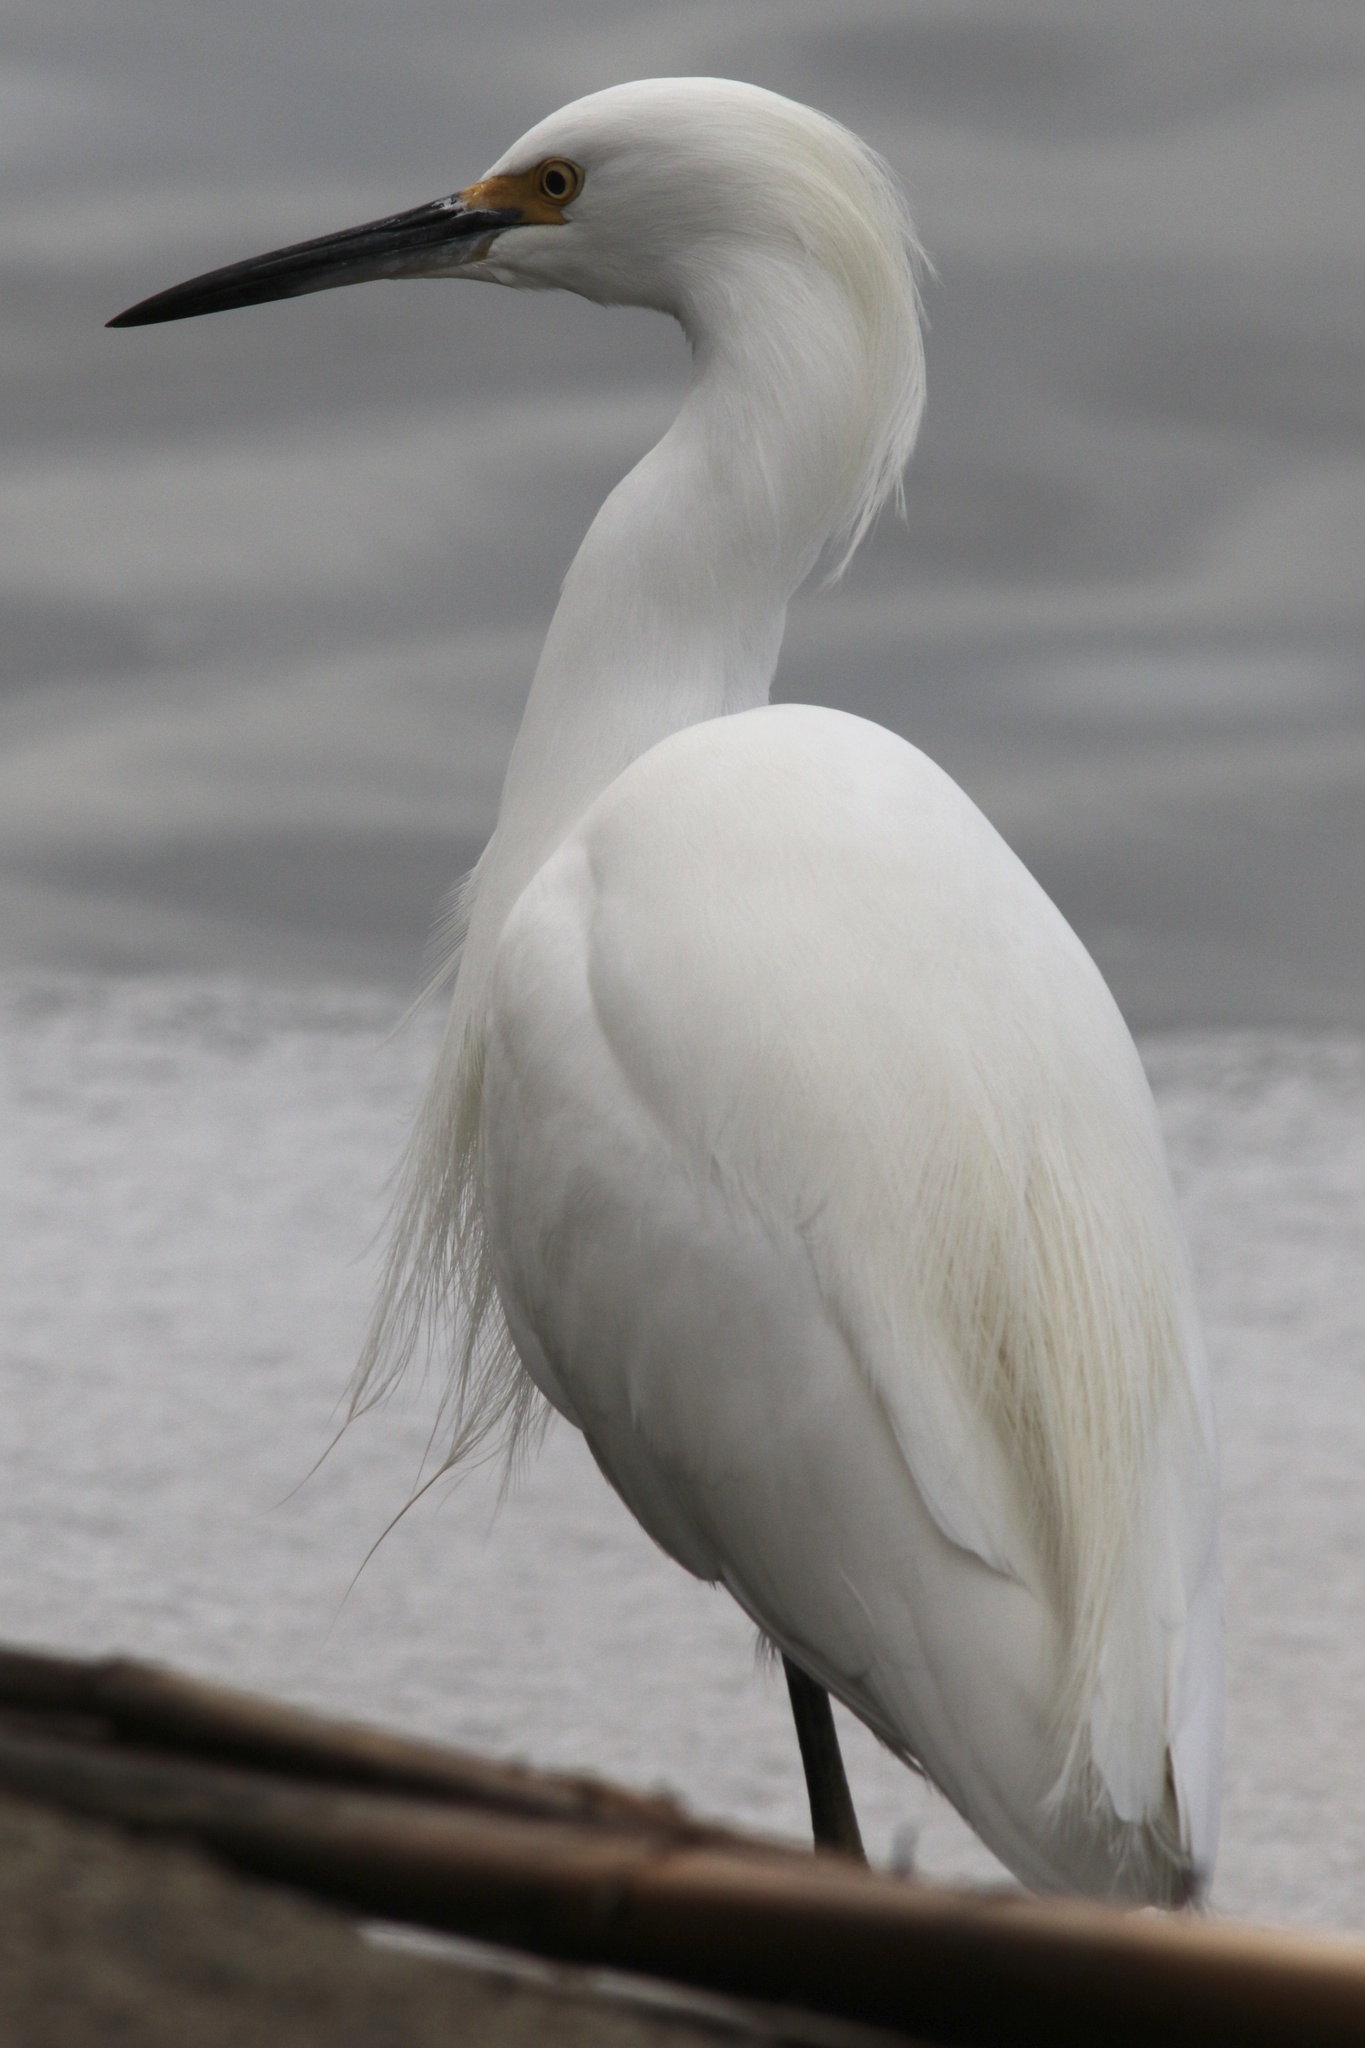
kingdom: Animalia
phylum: Chordata
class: Aves
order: Pelecaniformes
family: Ardeidae
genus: Egretta
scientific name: Egretta thula
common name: Snowy egret
